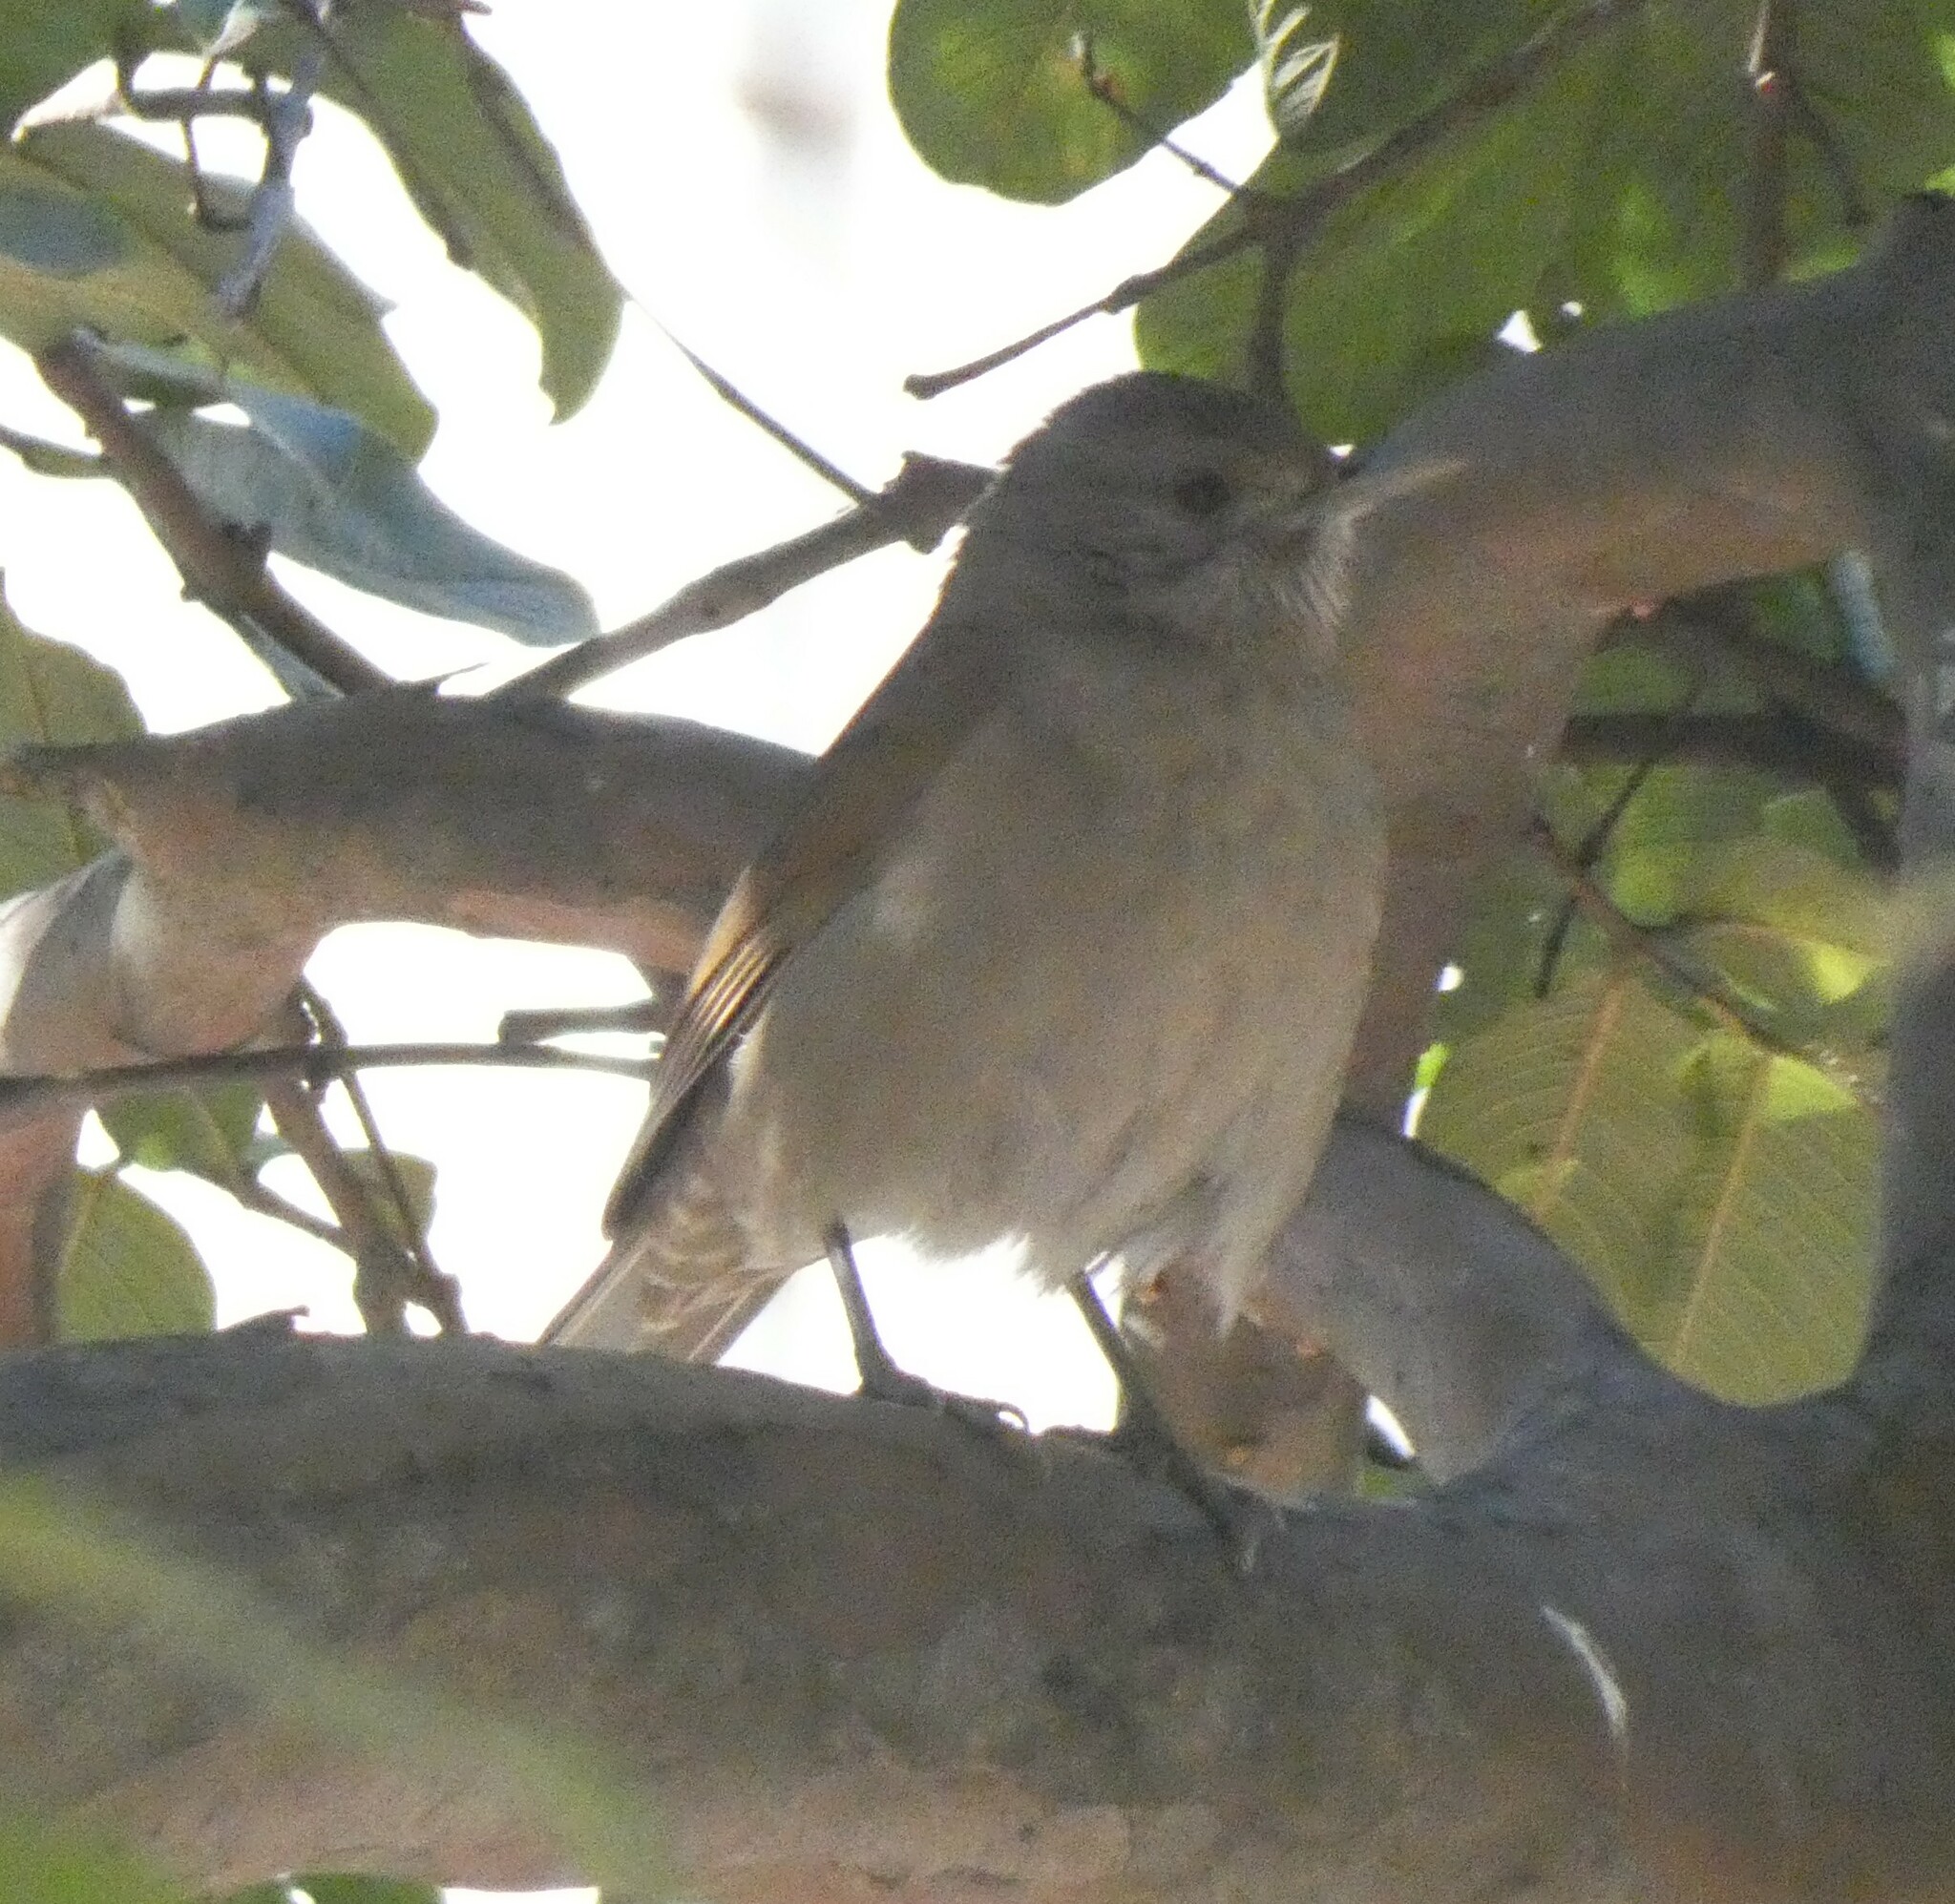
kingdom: Animalia
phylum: Chordata
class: Aves
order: Passeriformes
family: Turdidae
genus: Turdus
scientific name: Turdus leucomelas
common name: Pale-breasted thrush
